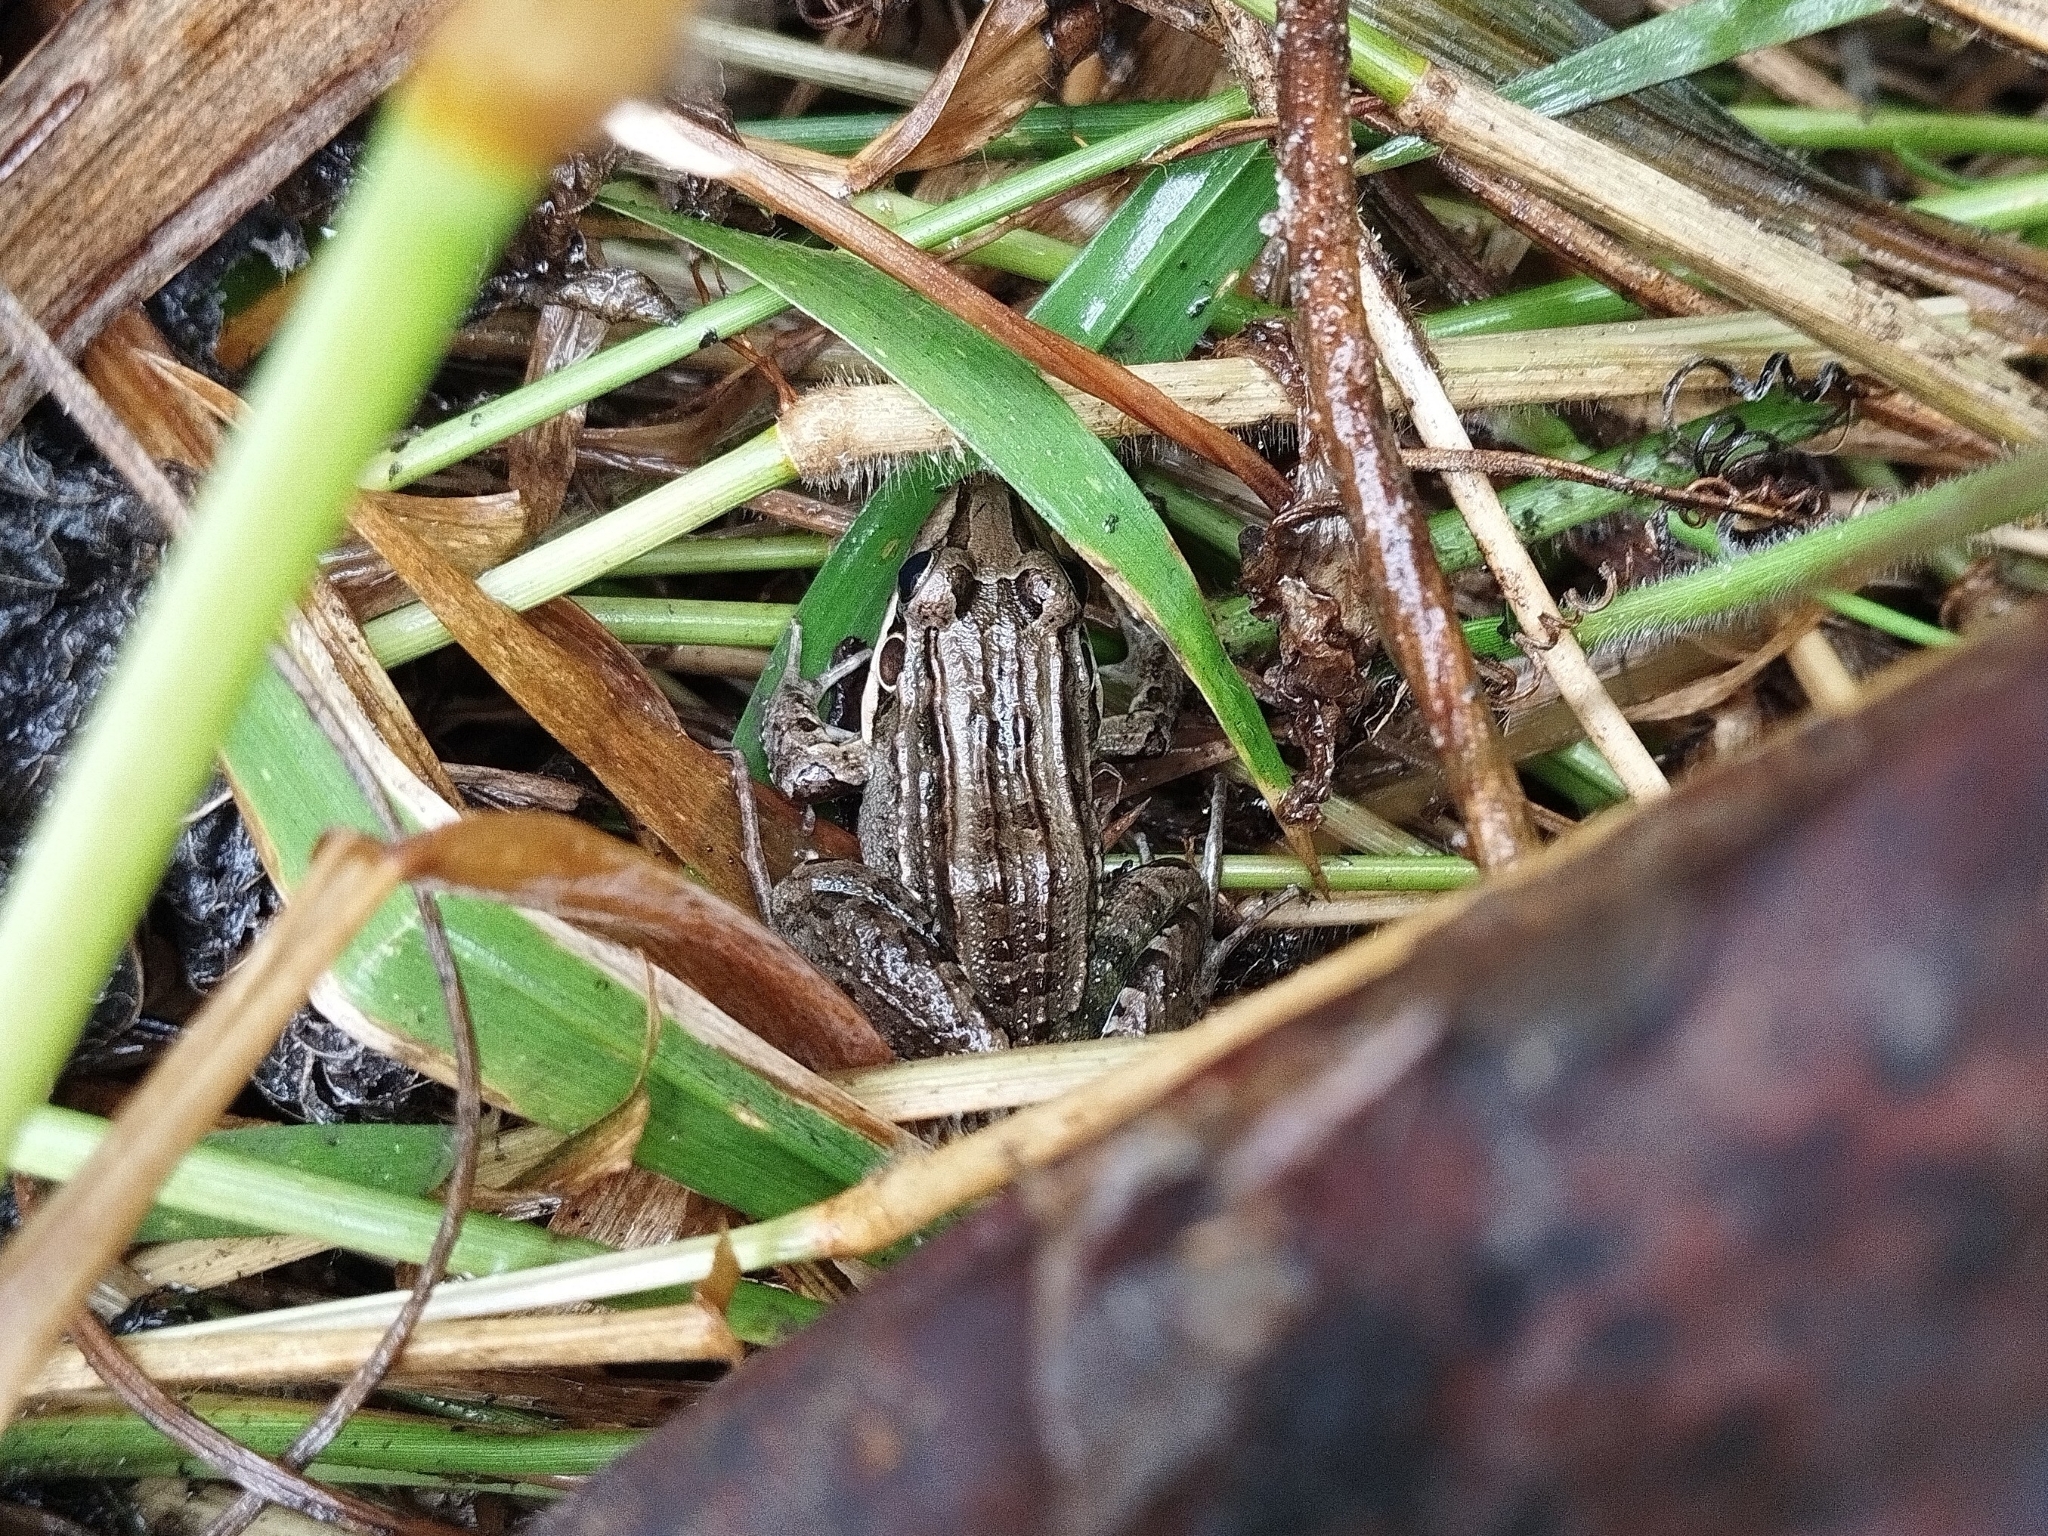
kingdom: Animalia
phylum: Chordata
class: Amphibia
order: Anura
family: Leptodactylidae
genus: Leptodactylus
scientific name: Leptodactylus latrans
